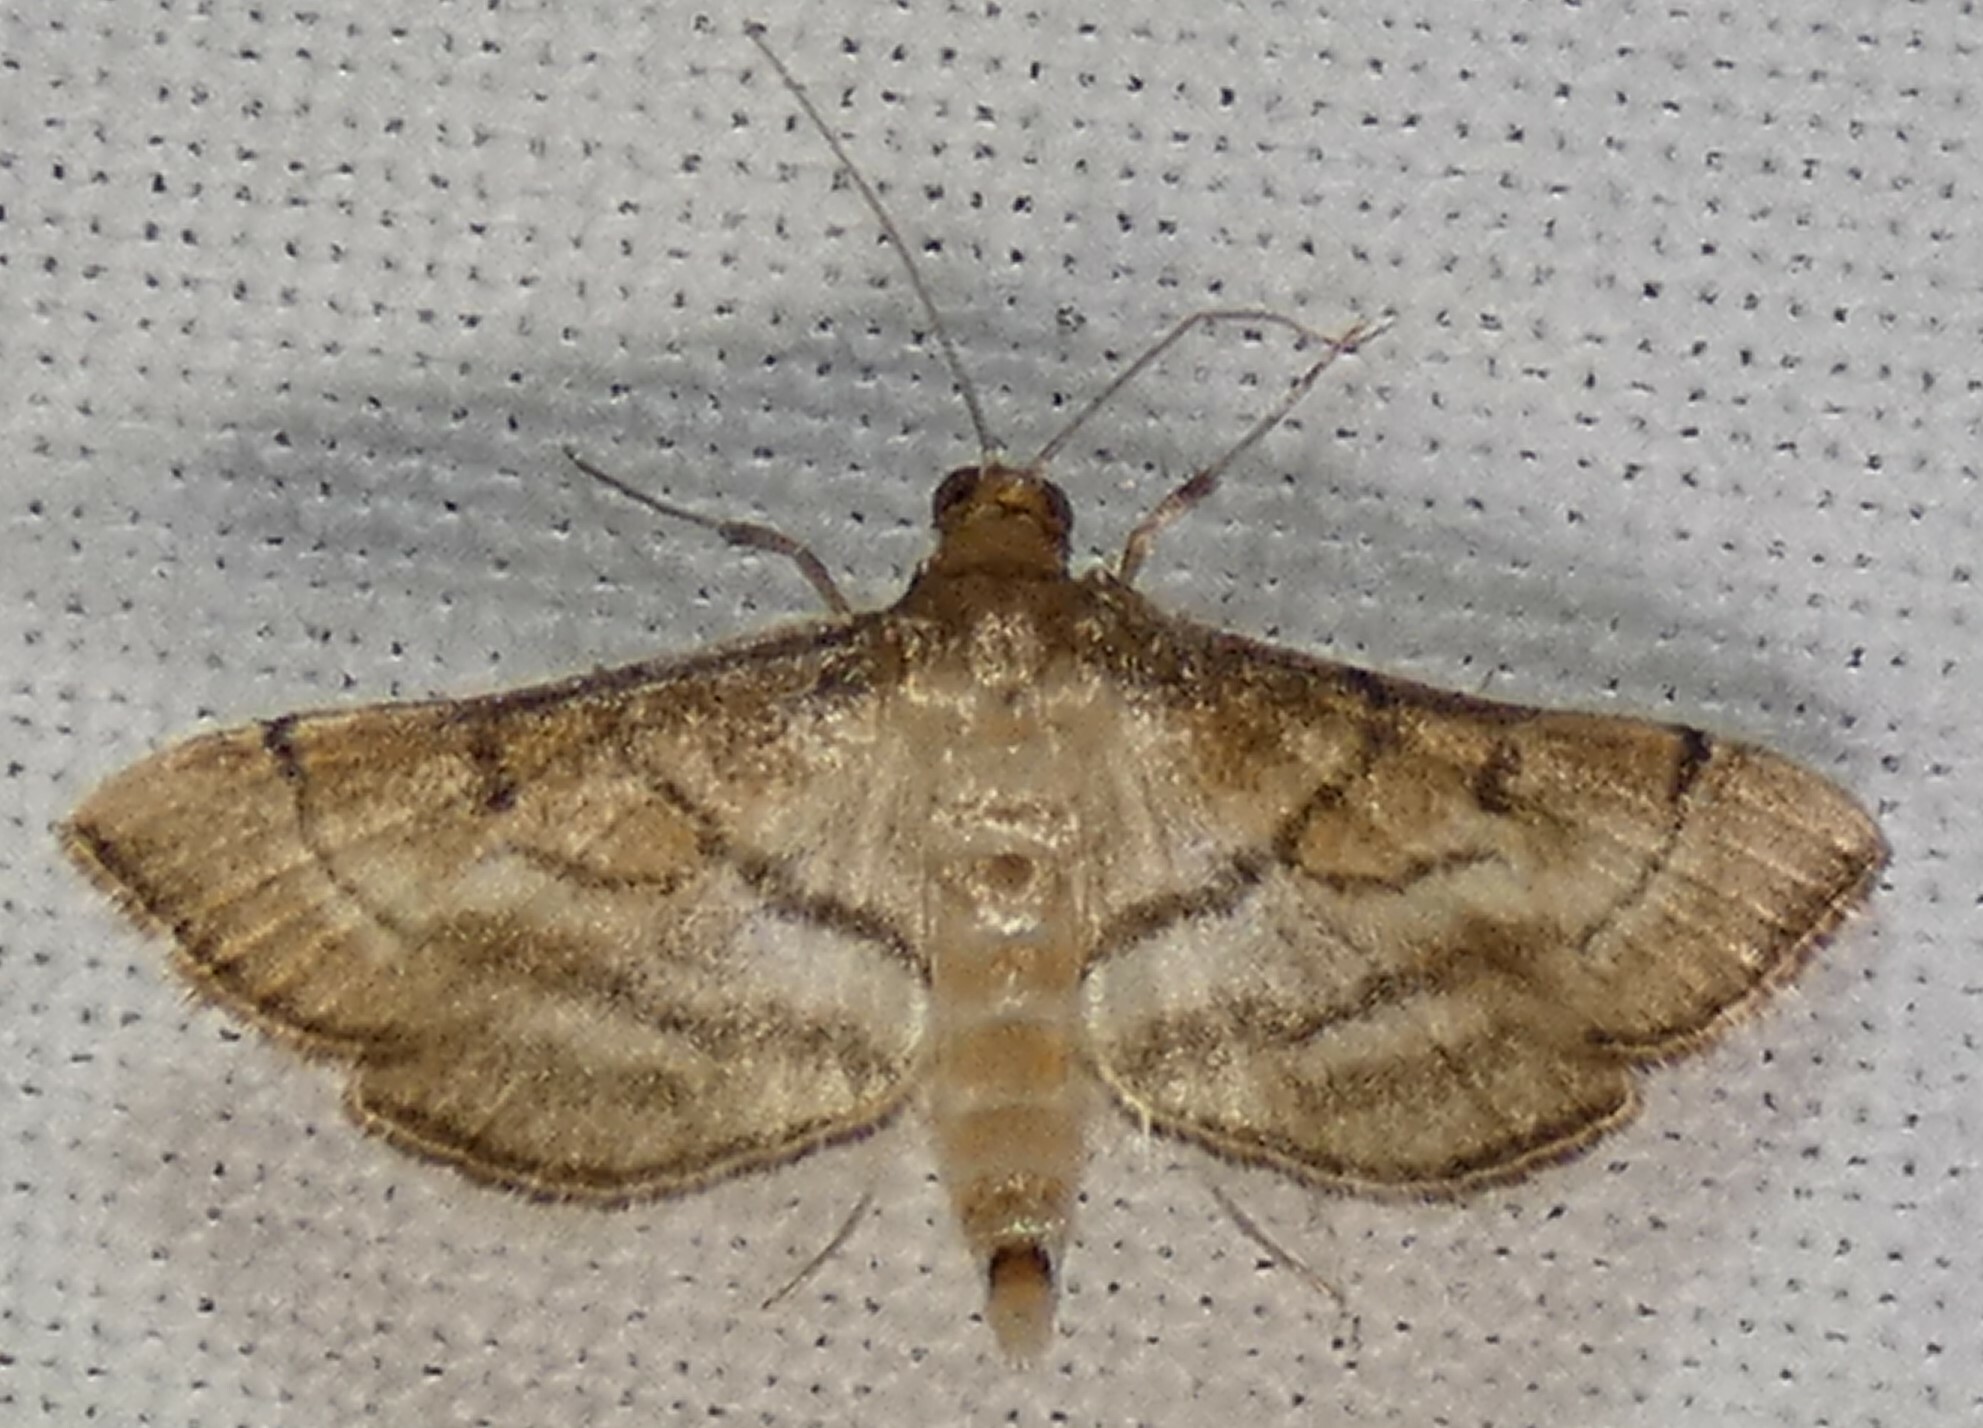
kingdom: Animalia
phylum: Arthropoda
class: Insecta
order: Lepidoptera
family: Crambidae
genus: Cnaphalocrocis
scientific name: Cnaphalocrocis Marasmia cochrusalis
